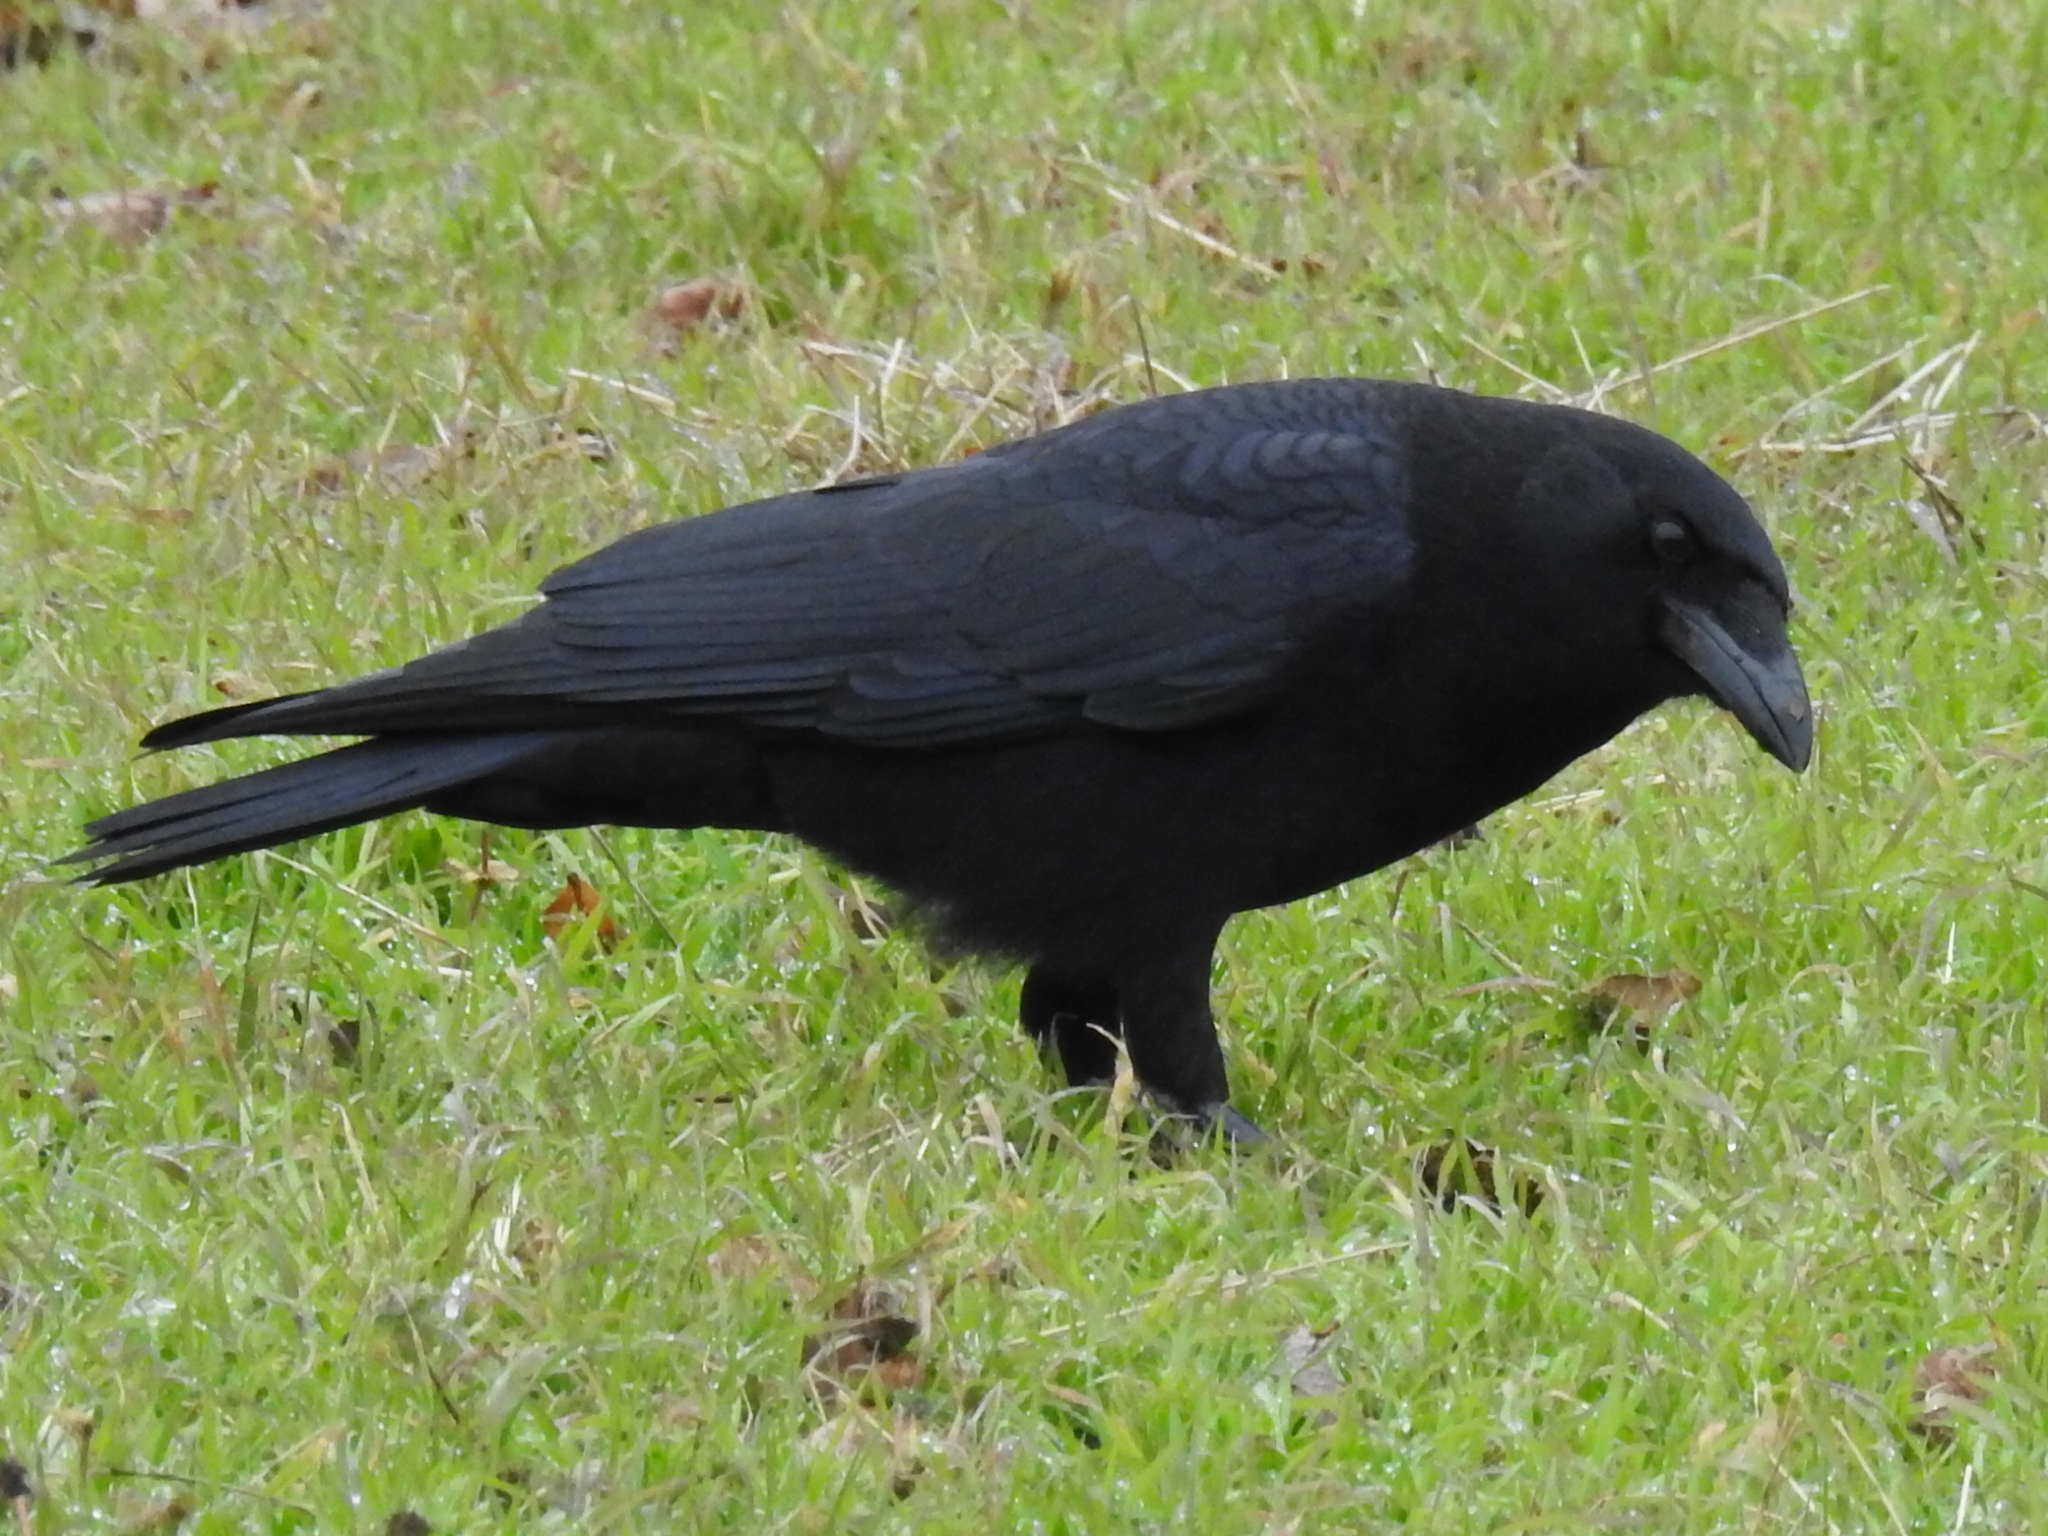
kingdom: Animalia
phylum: Chordata
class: Aves
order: Passeriformes
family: Corvidae
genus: Corvus
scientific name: Corvus brachyrhynchos
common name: American crow
